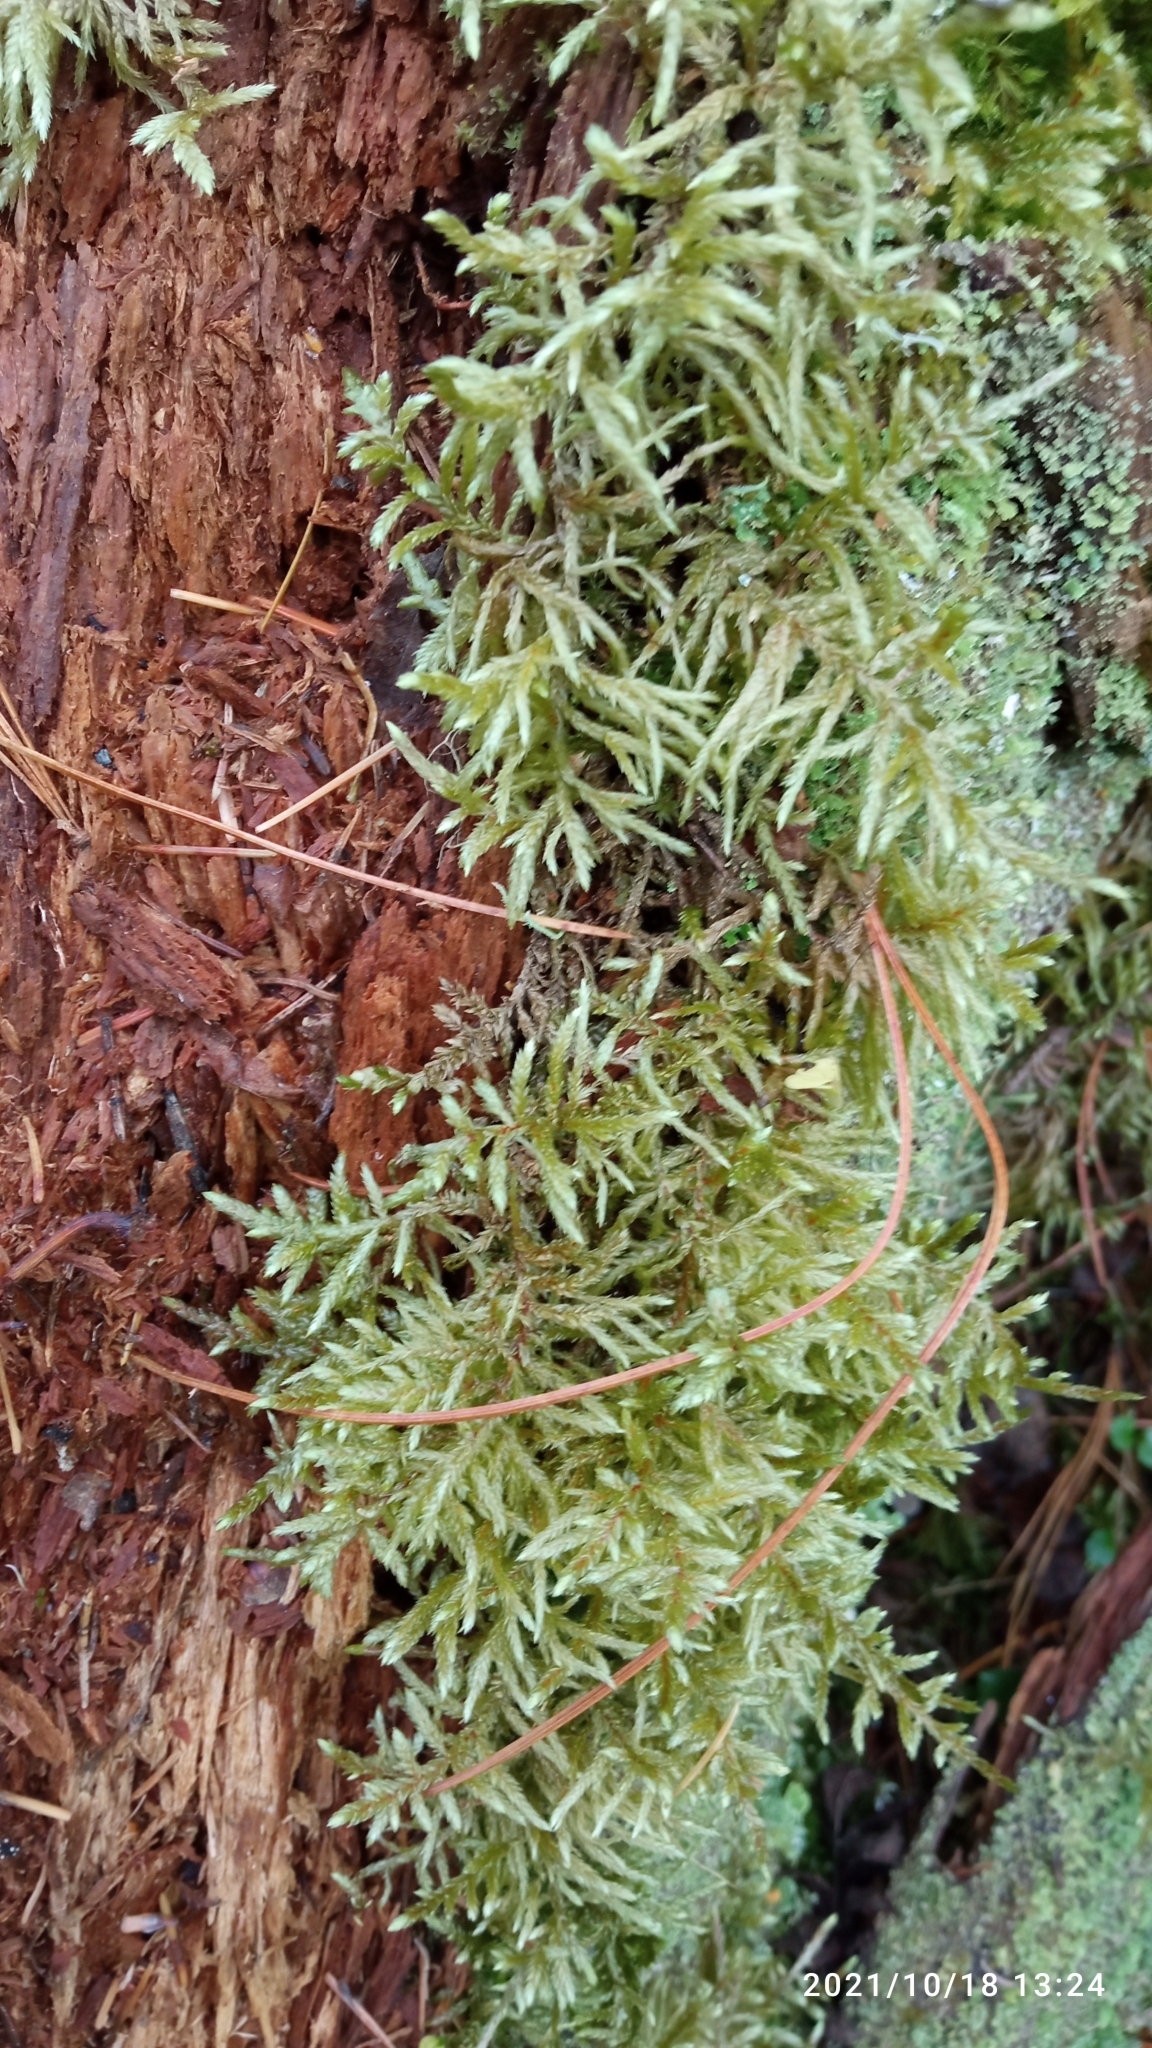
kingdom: Plantae
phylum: Bryophyta
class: Bryopsida
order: Hypnales
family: Hylocomiaceae
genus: Pleurozium
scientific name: Pleurozium schreberi
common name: Red-stemmed feather moss
